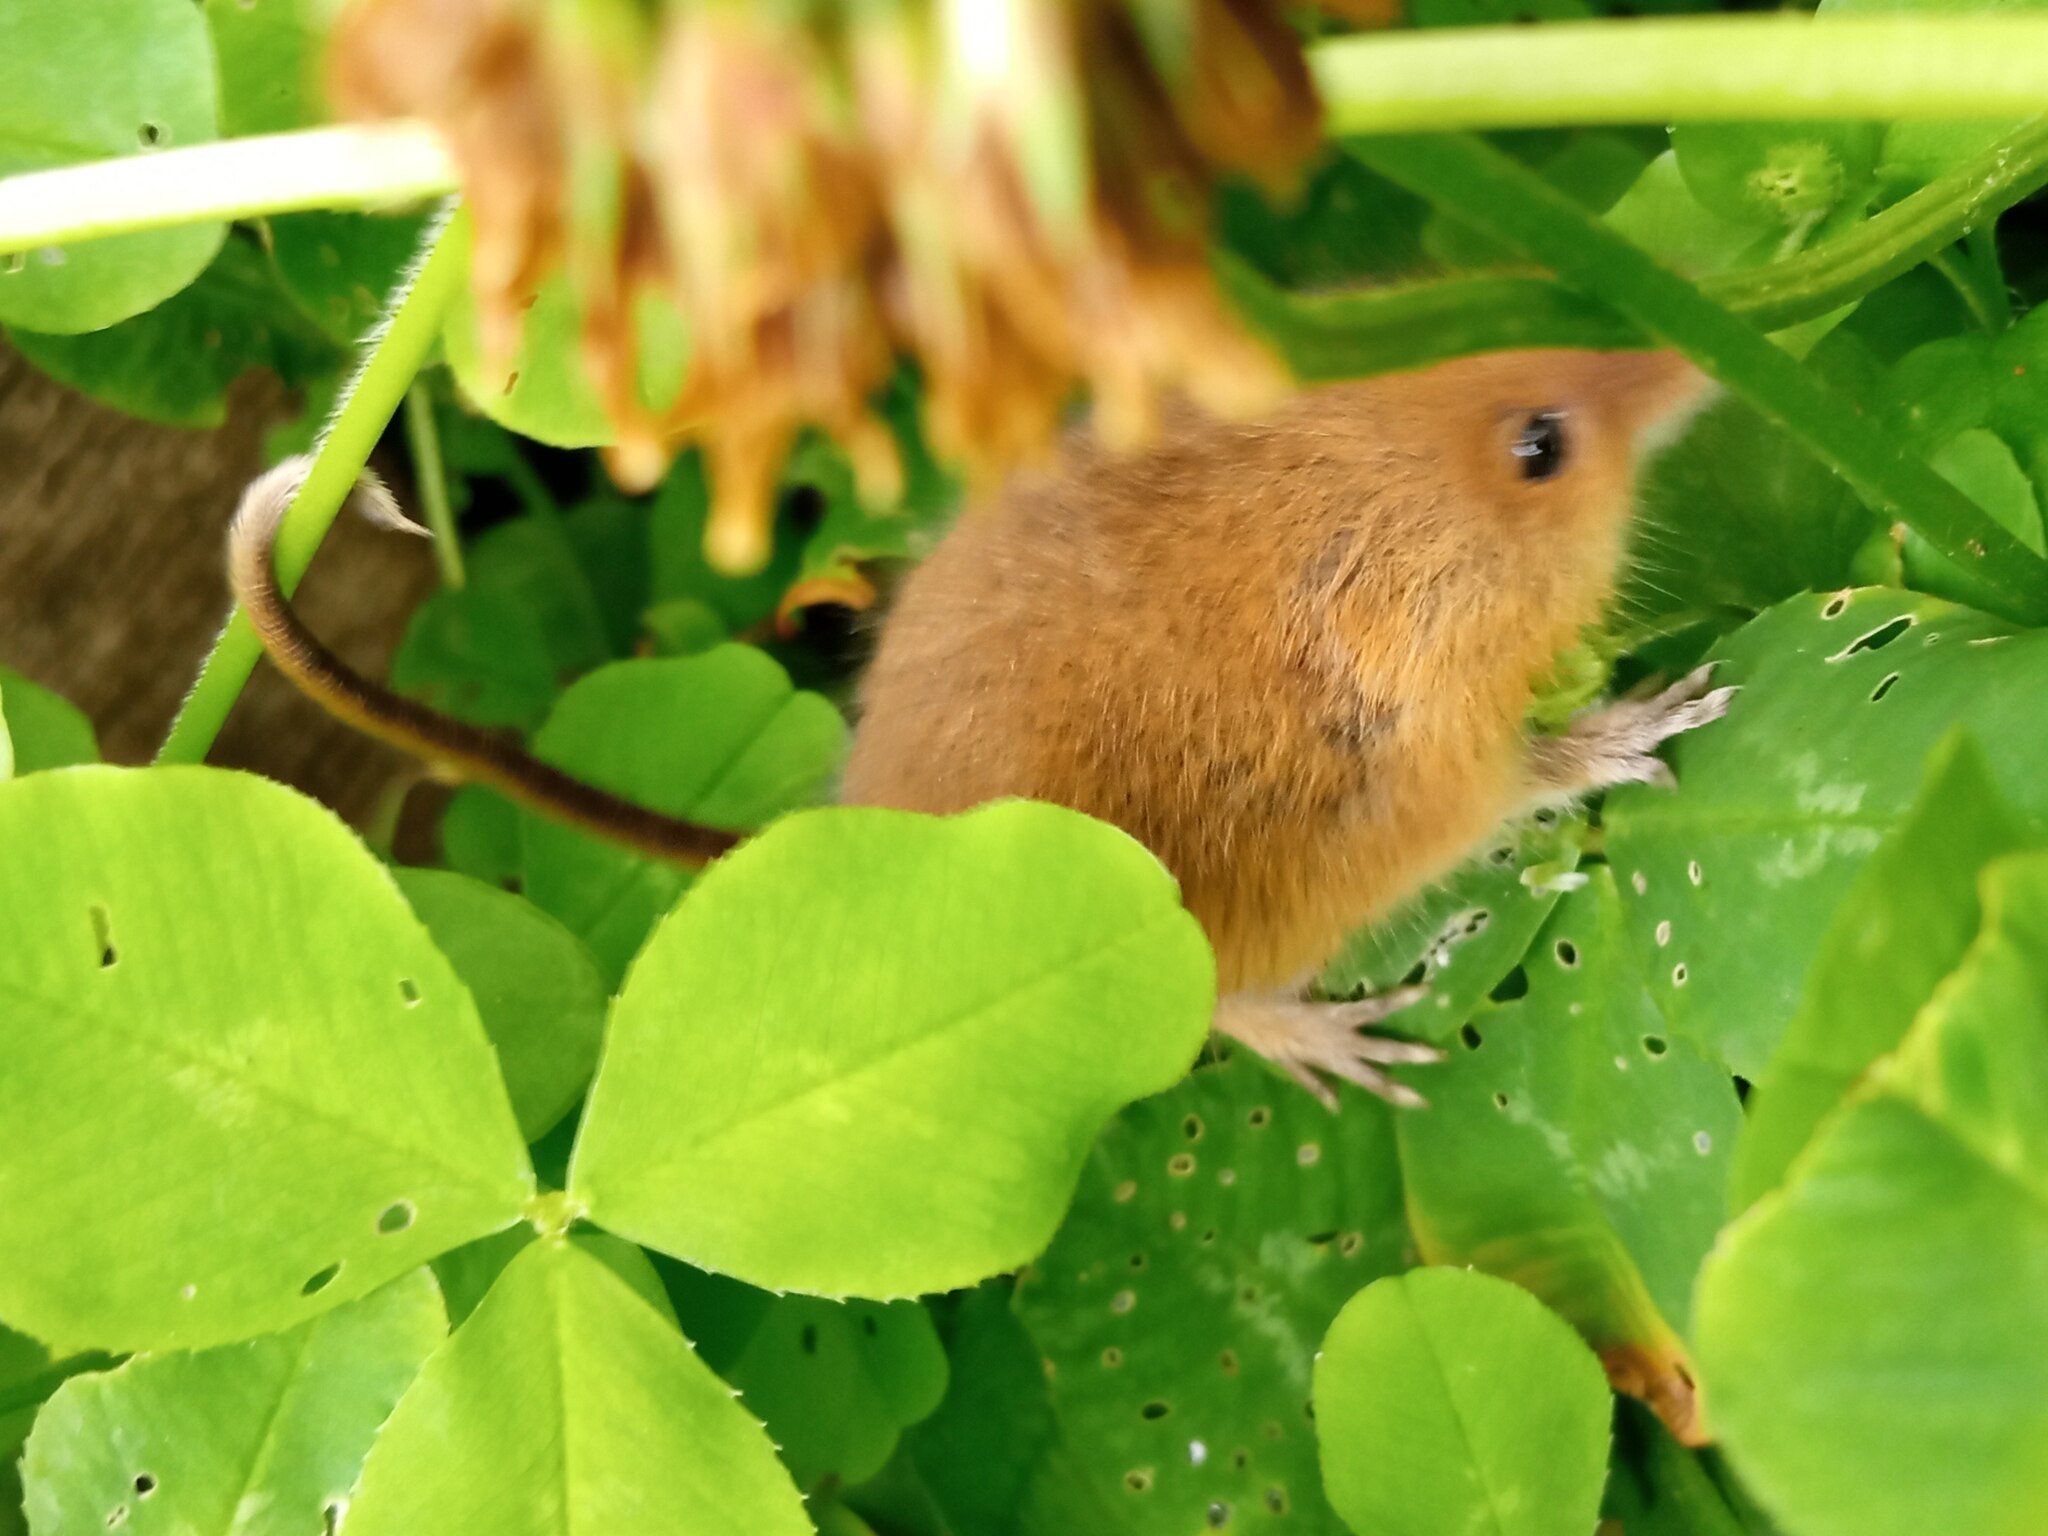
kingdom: Animalia
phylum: Chordata
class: Mammalia
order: Rodentia
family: Muridae
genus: Micromys
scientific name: Micromys minutus
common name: Harvest mouse
